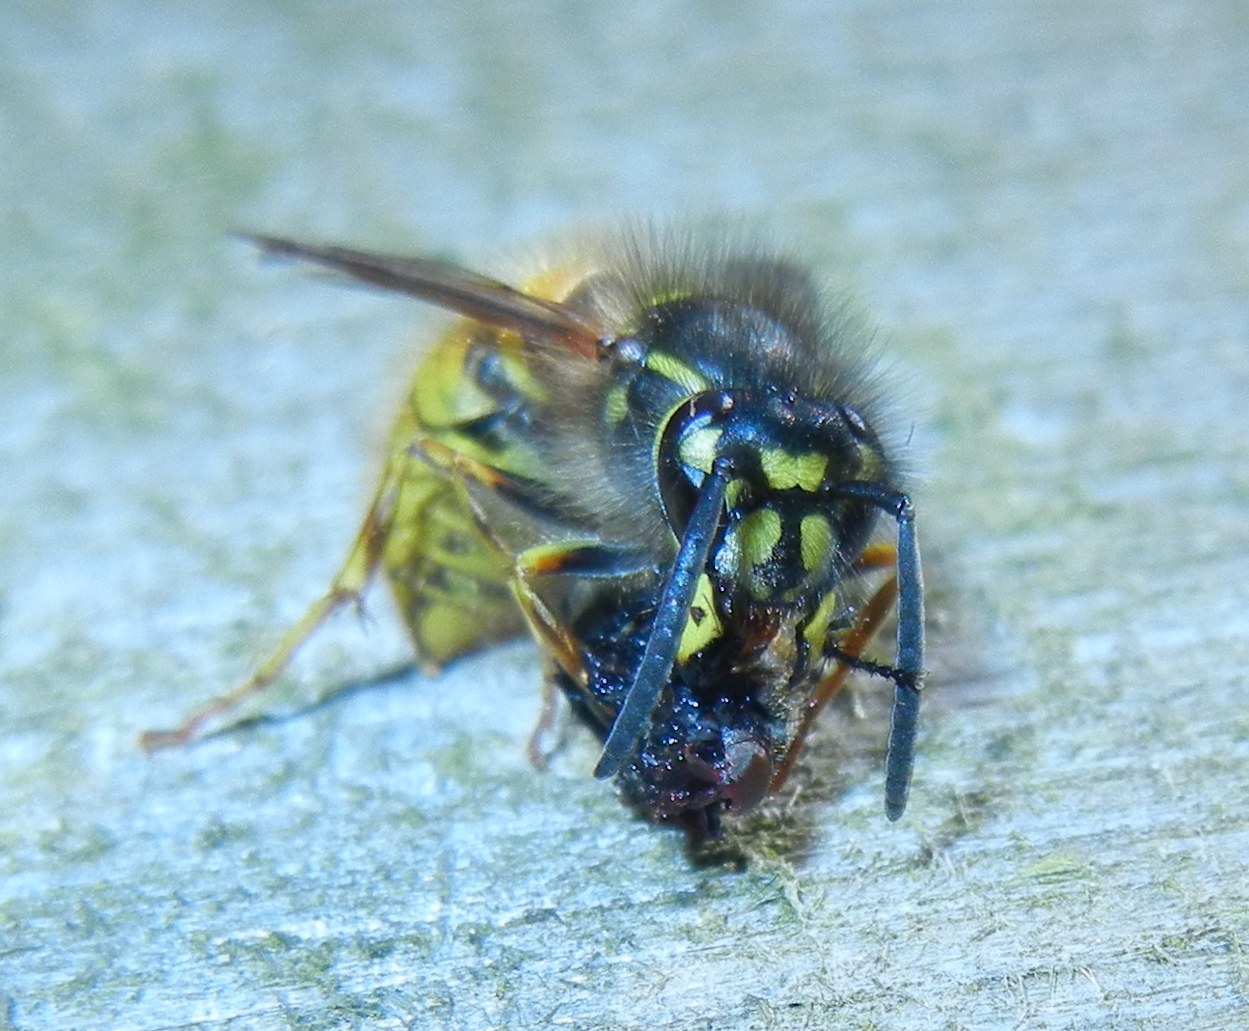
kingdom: Animalia
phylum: Arthropoda
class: Insecta
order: Hymenoptera
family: Vespidae
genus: Vespula
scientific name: Vespula vulgaris
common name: Common wasp
